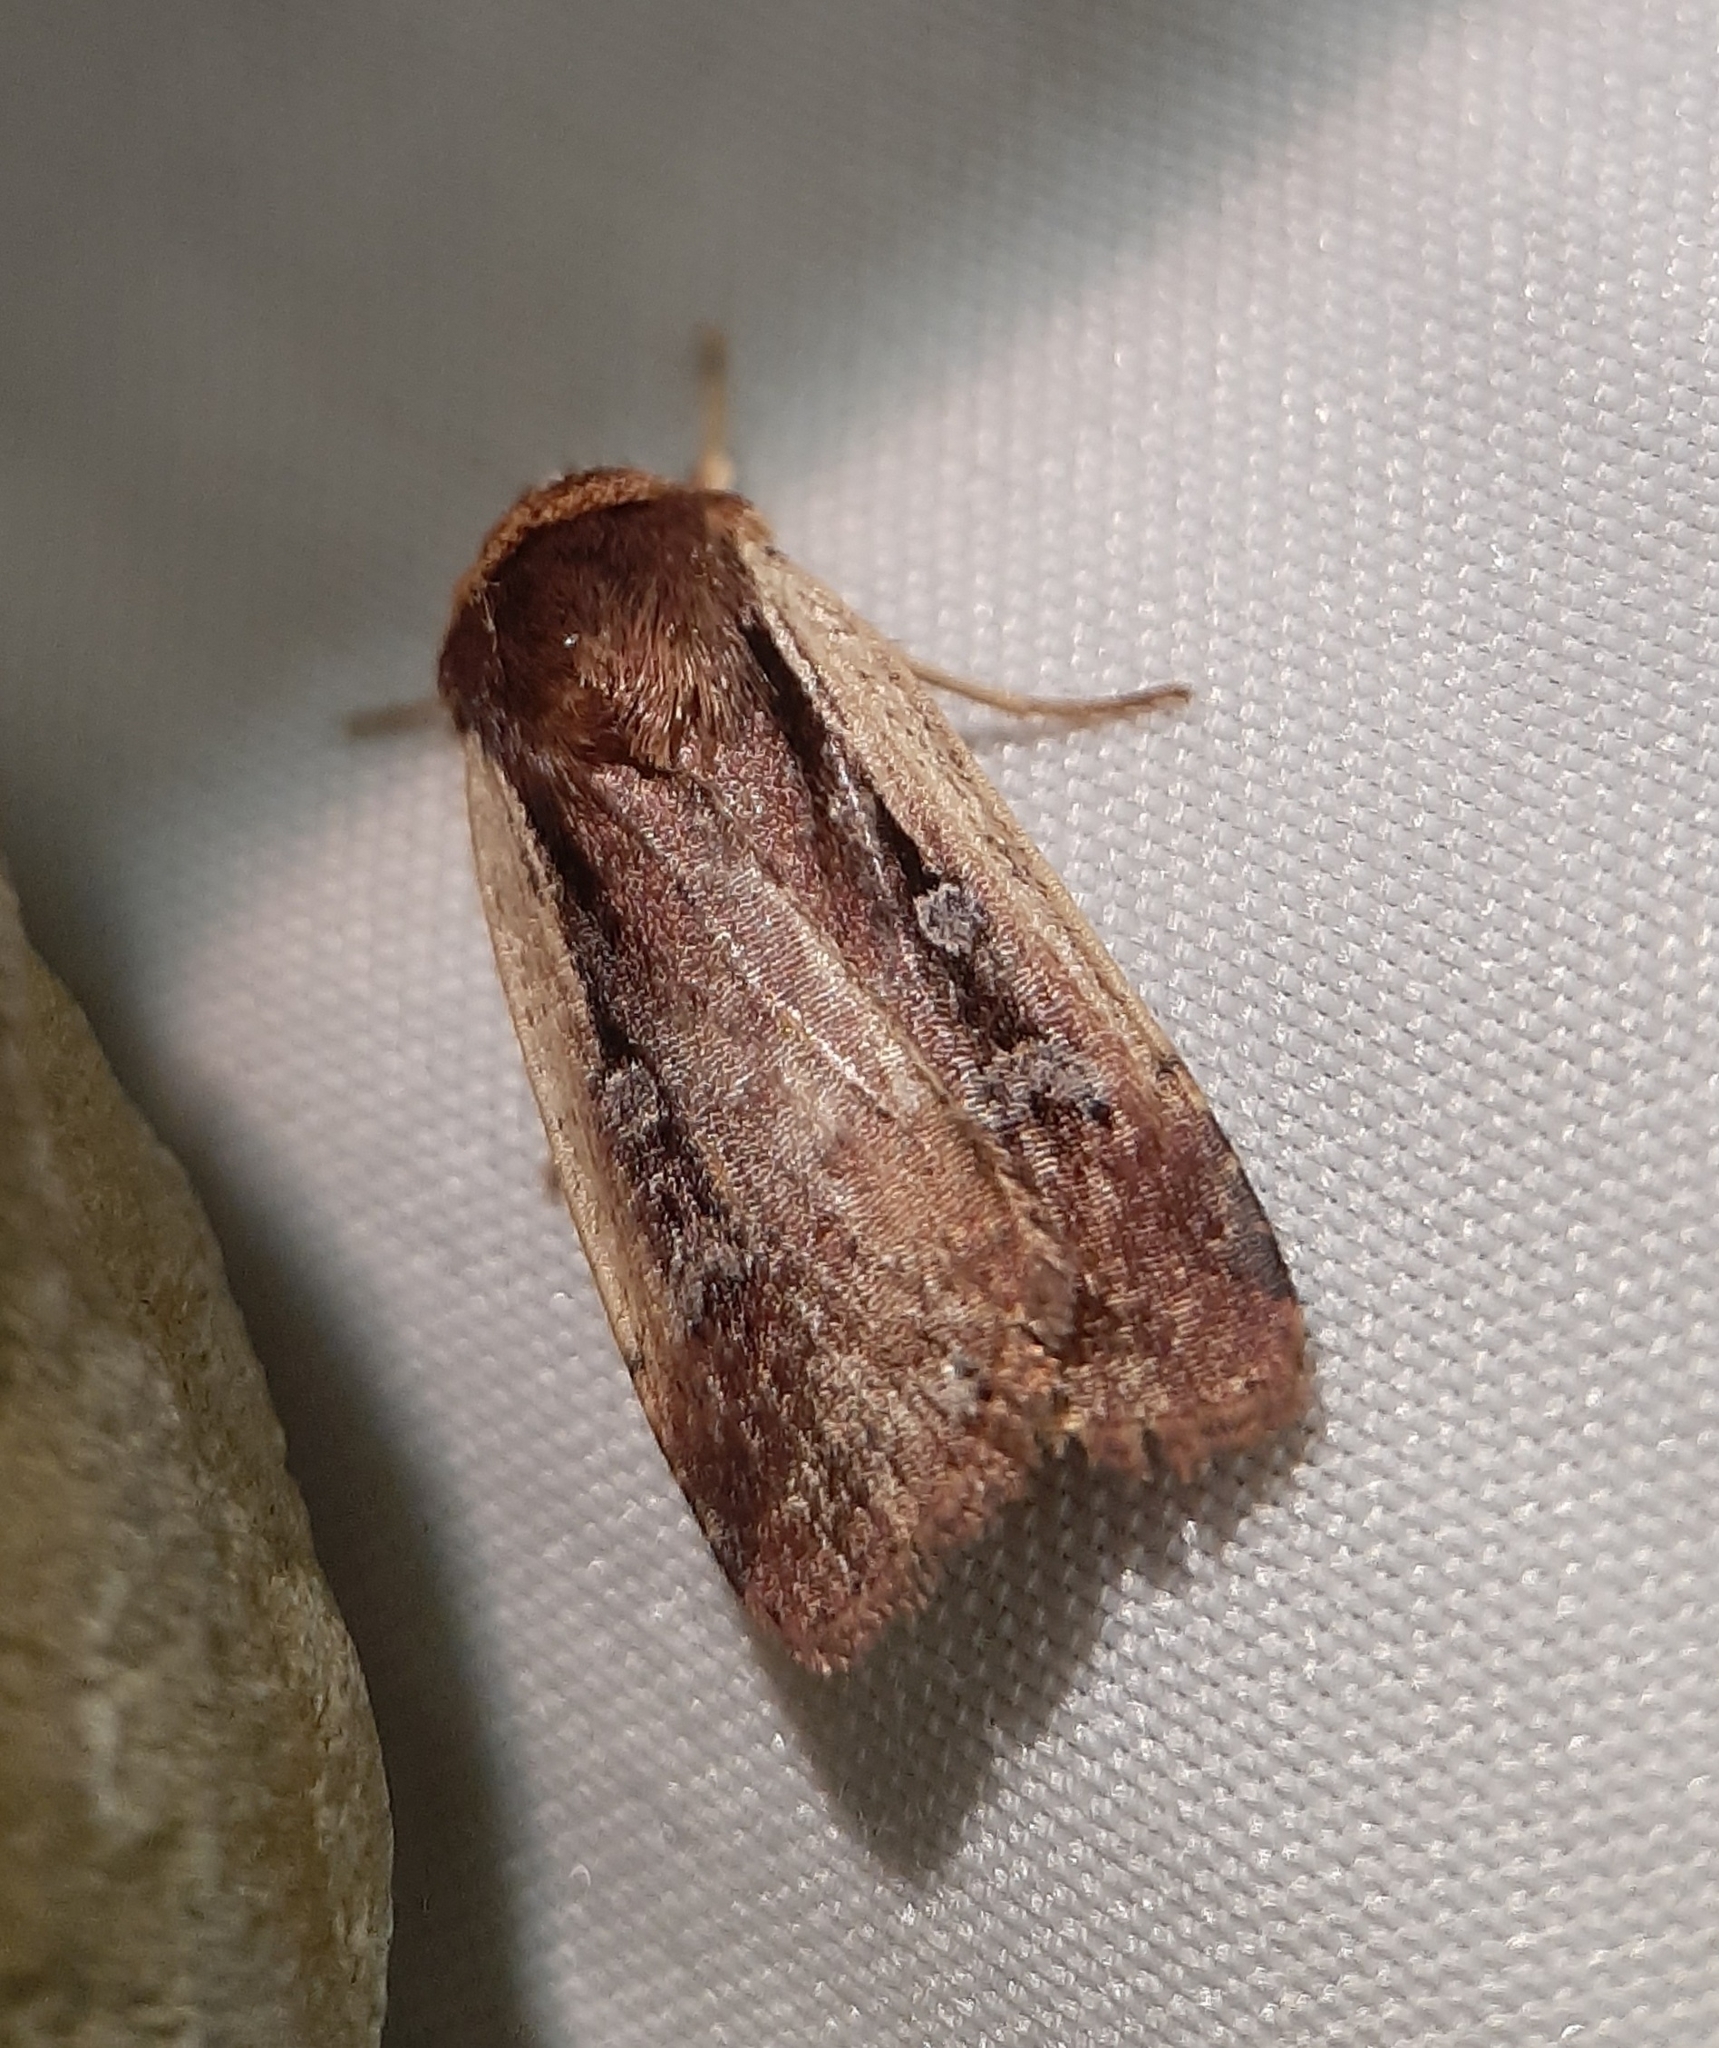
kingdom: Animalia
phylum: Arthropoda
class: Insecta
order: Lepidoptera
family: Noctuidae
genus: Ochropleura
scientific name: Ochropleura implecta
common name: Flame-shouldered dart
